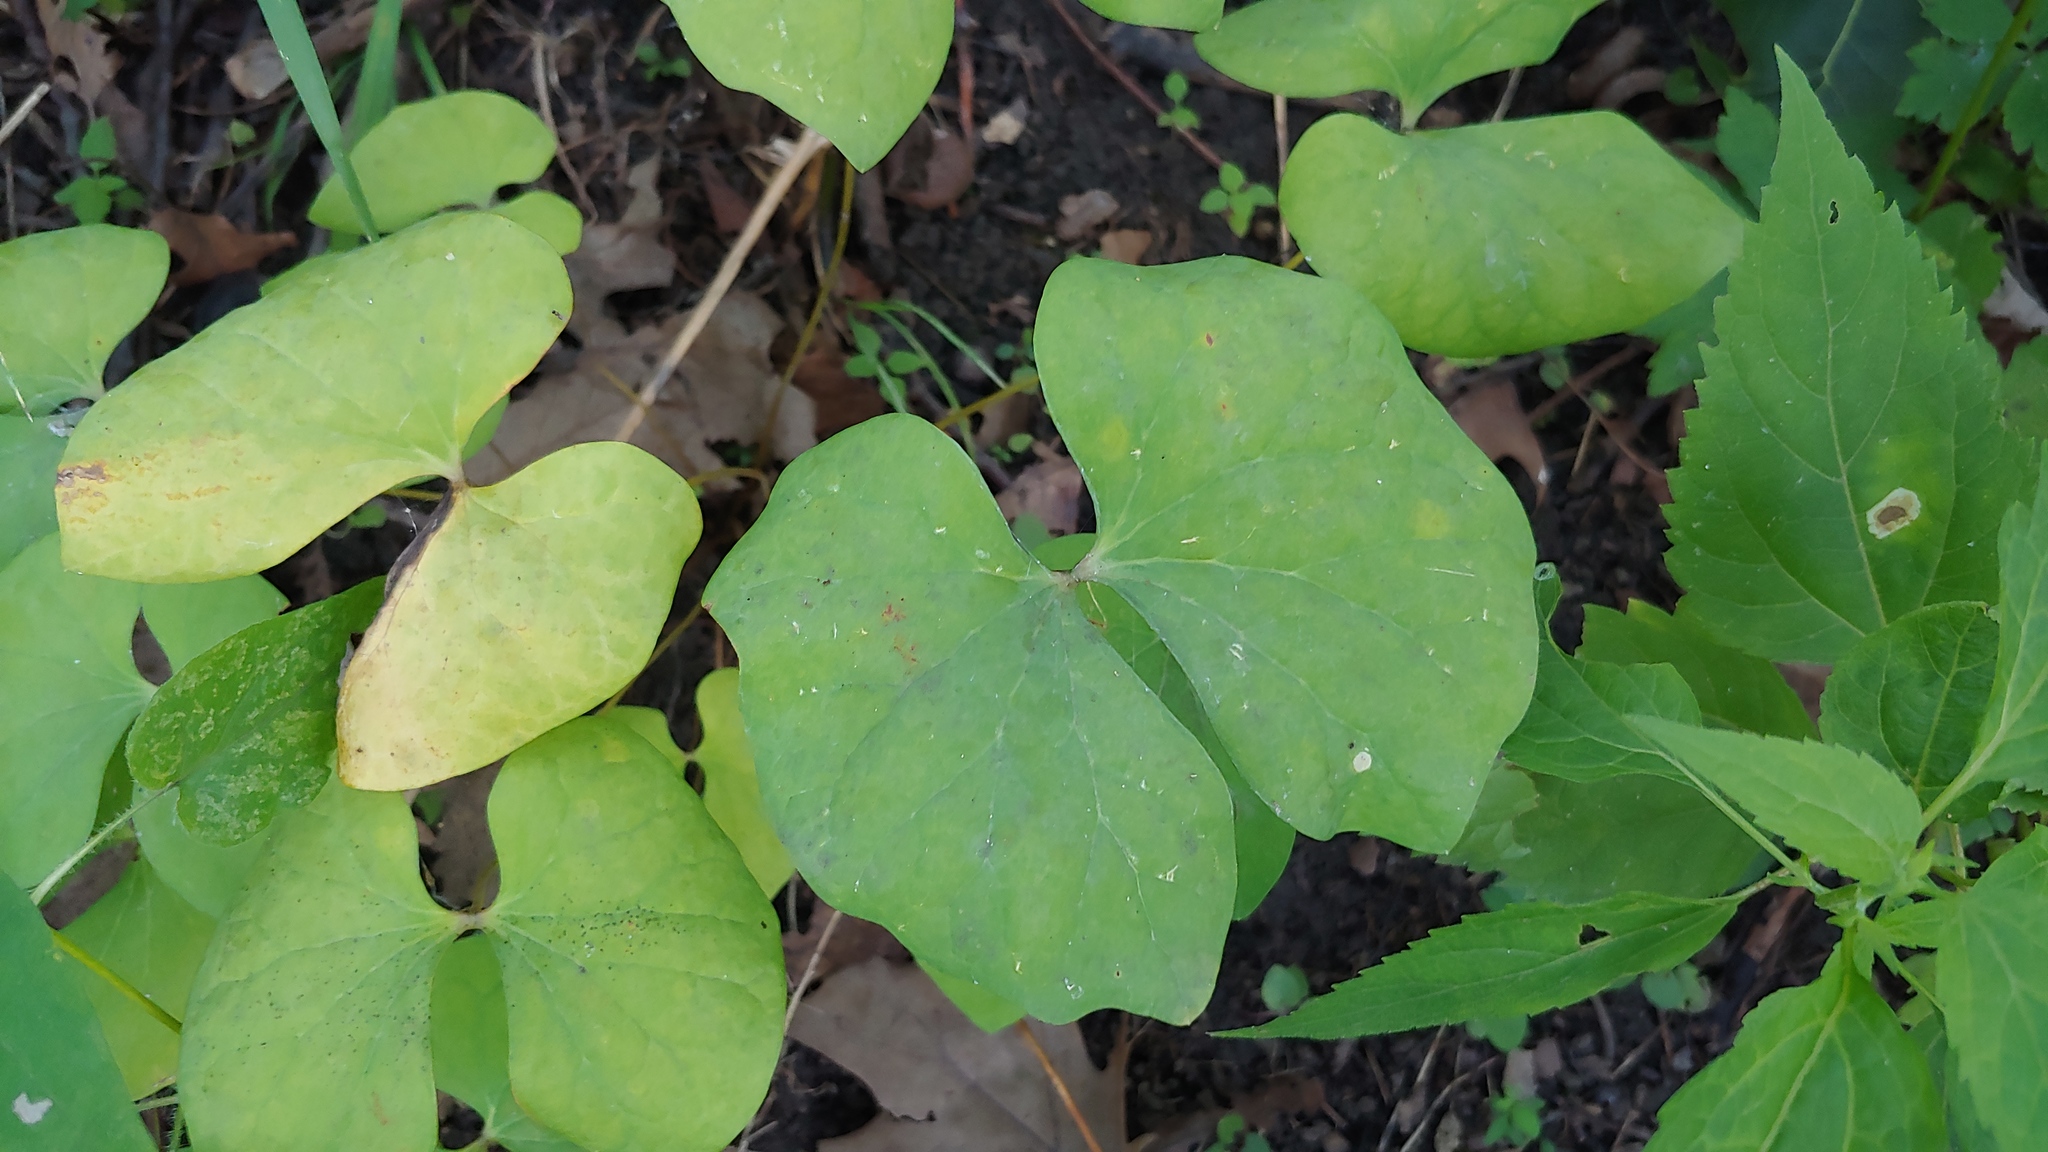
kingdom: Plantae
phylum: Tracheophyta
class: Magnoliopsida
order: Ranunculales
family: Berberidaceae
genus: Jeffersonia
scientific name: Jeffersonia diphylla
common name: Rheumatism-root
